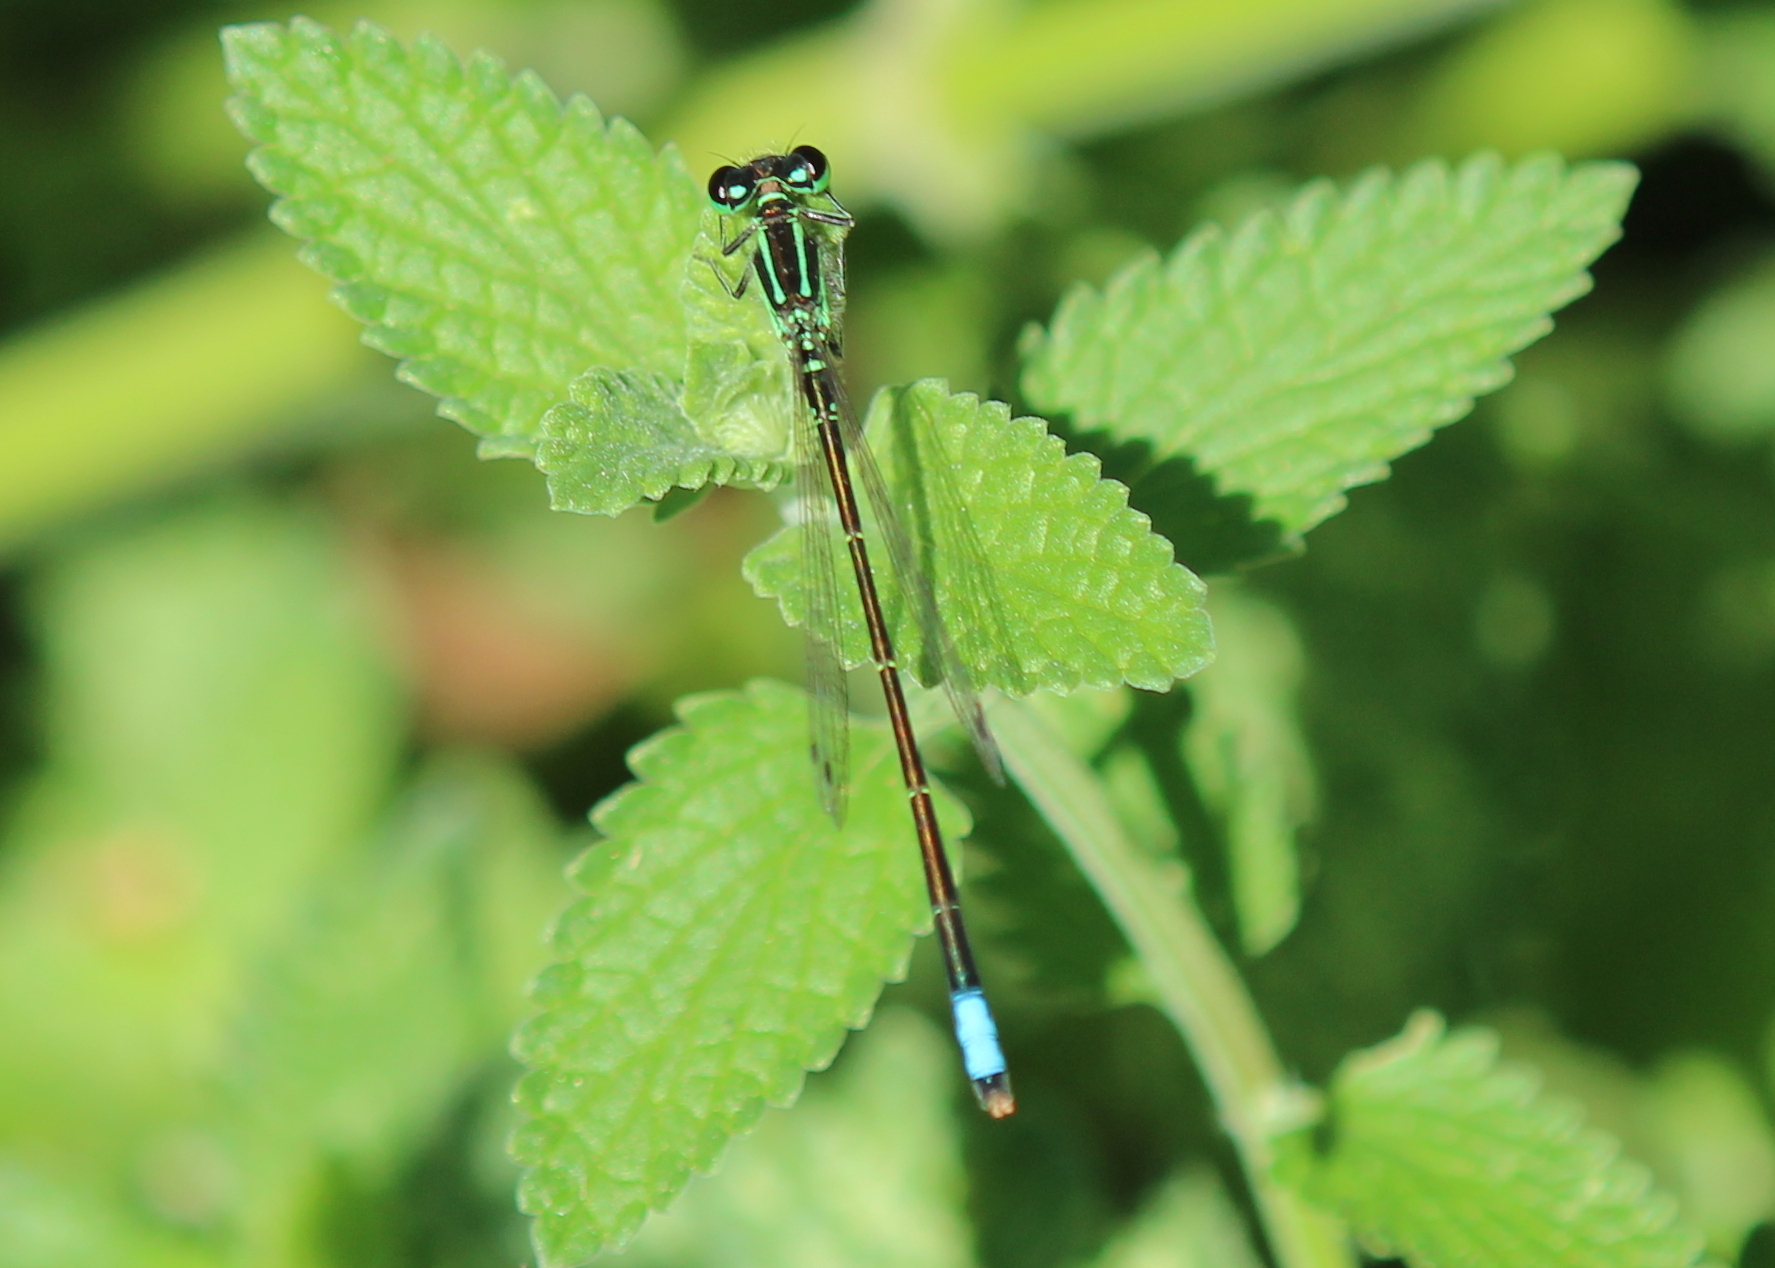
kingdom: Animalia
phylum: Arthropoda
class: Insecta
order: Odonata
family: Coenagrionidae
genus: Ischnura
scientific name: Ischnura verticalis
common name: Eastern forktail
